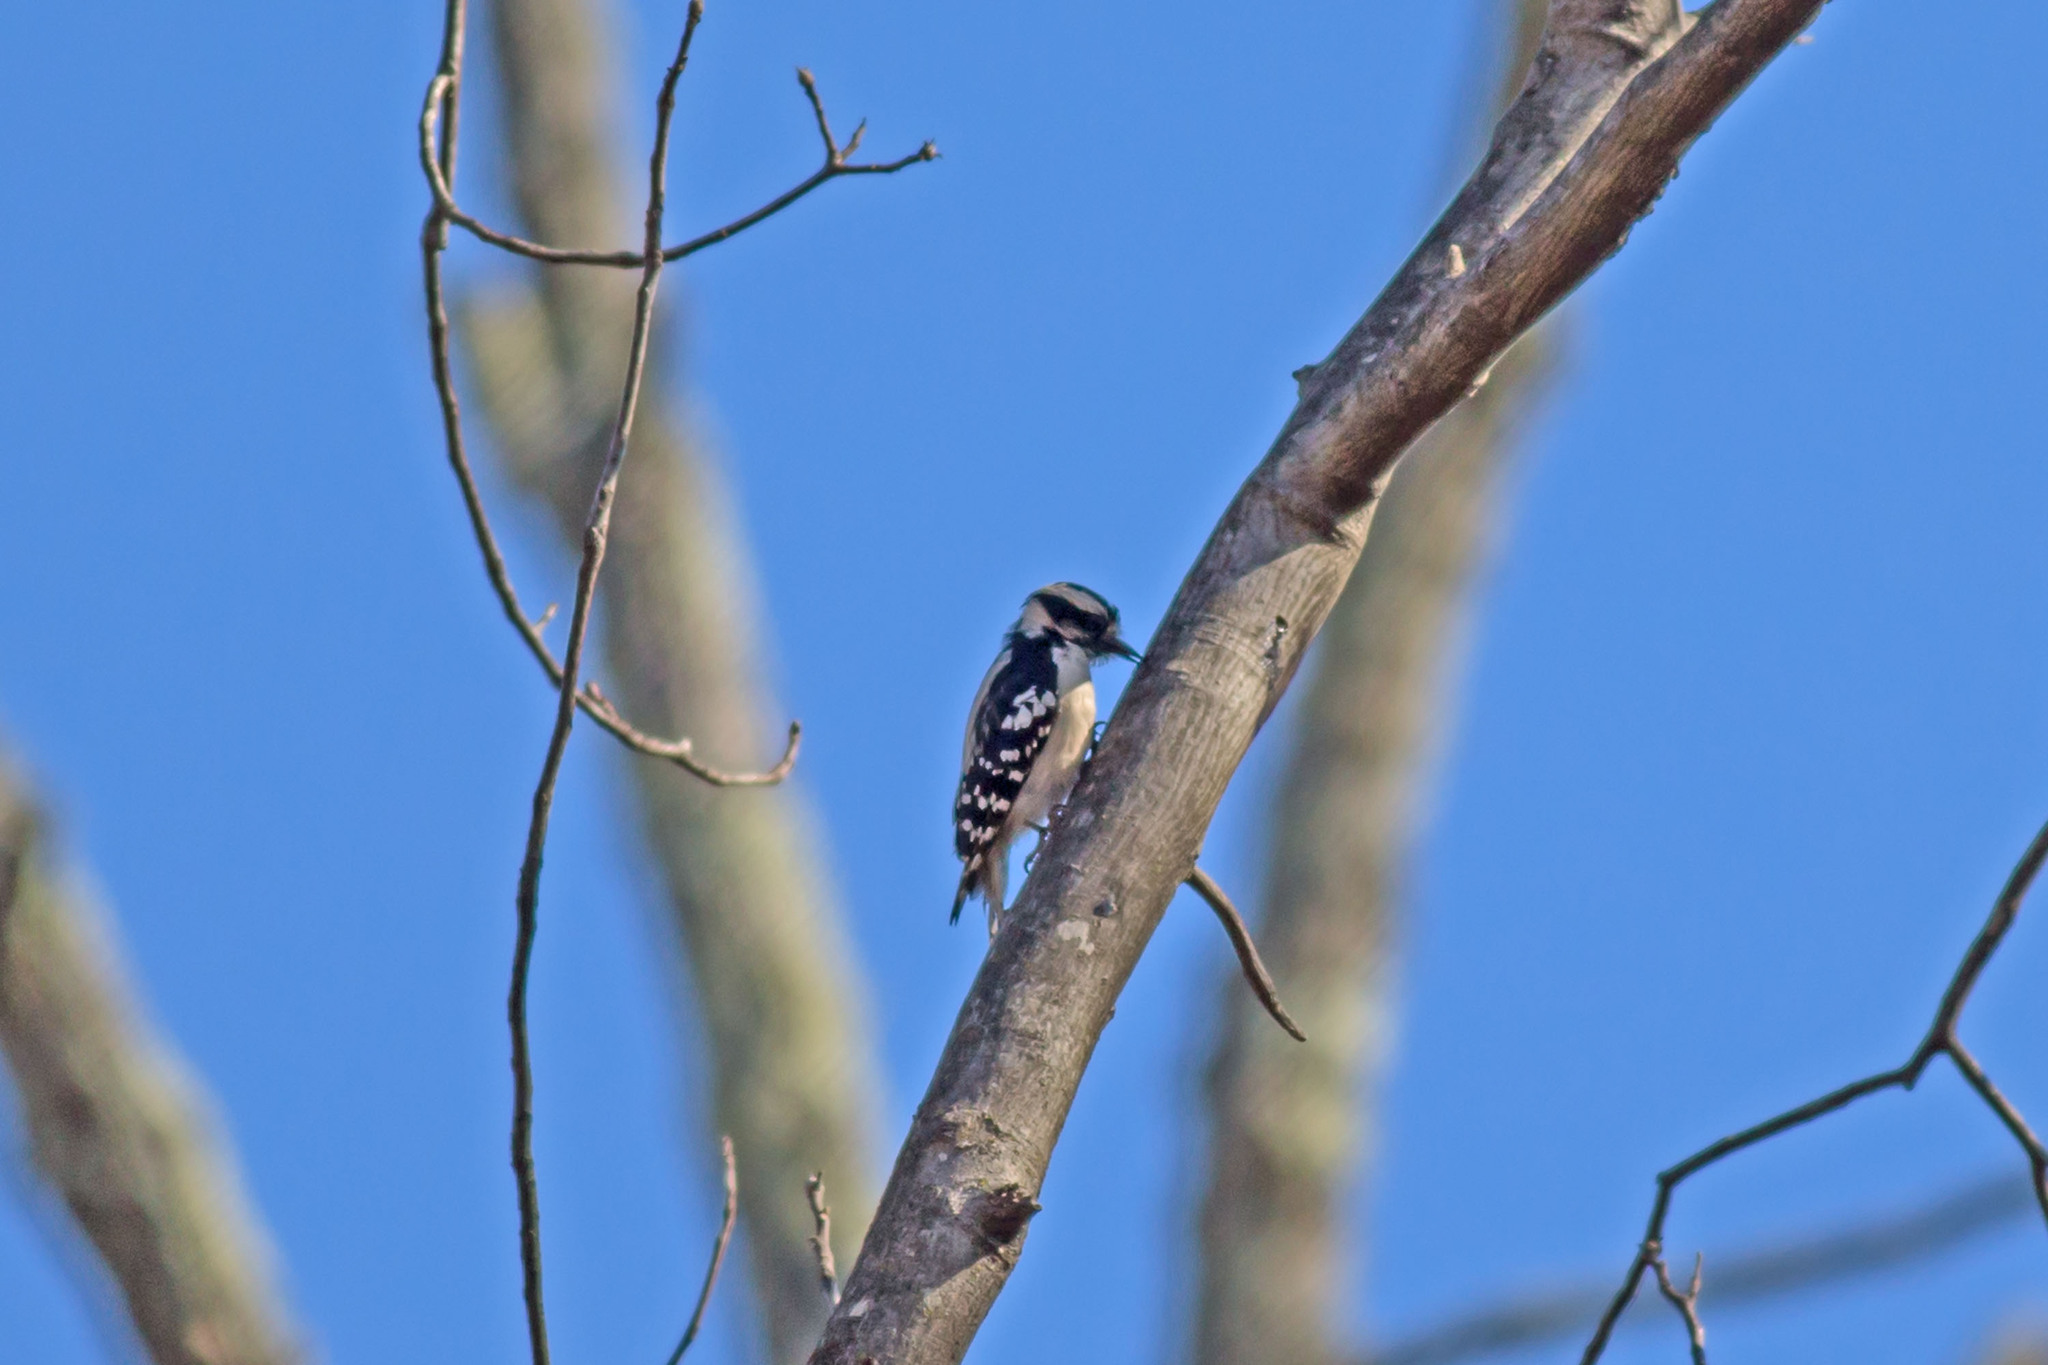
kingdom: Animalia
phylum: Chordata
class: Aves
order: Piciformes
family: Picidae
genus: Dryobates
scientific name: Dryobates pubescens
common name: Downy woodpecker
